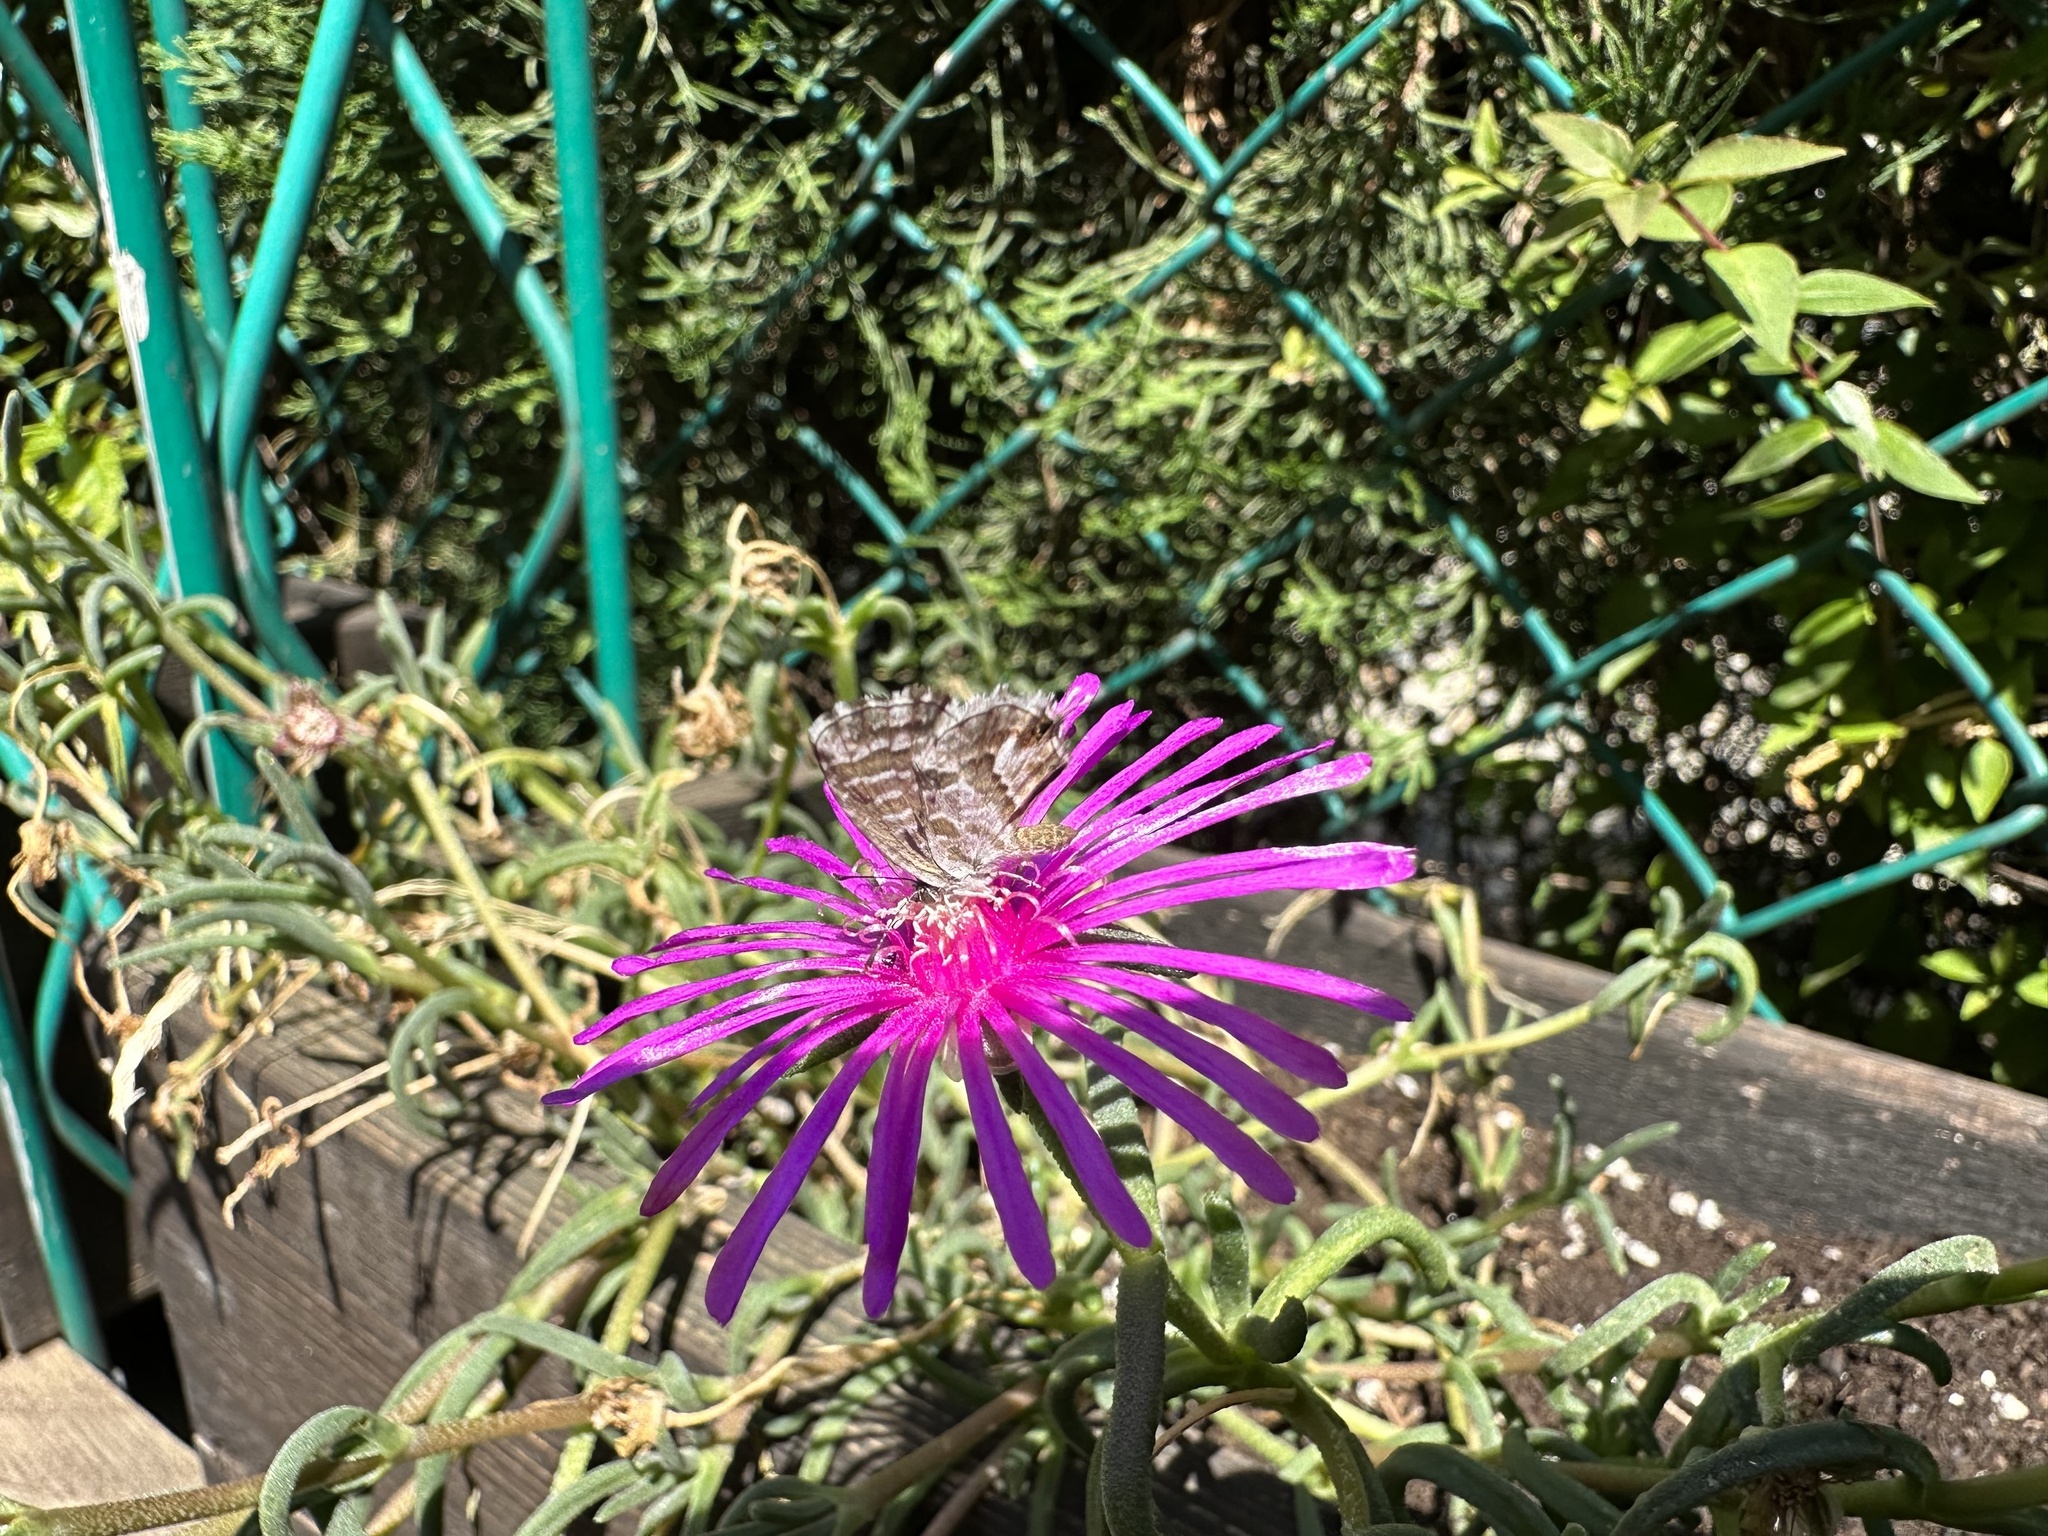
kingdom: Animalia
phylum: Arthropoda
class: Insecta
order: Lepidoptera
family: Lycaenidae
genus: Cacyreus
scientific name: Cacyreus marshalli
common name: Geranium bronze
